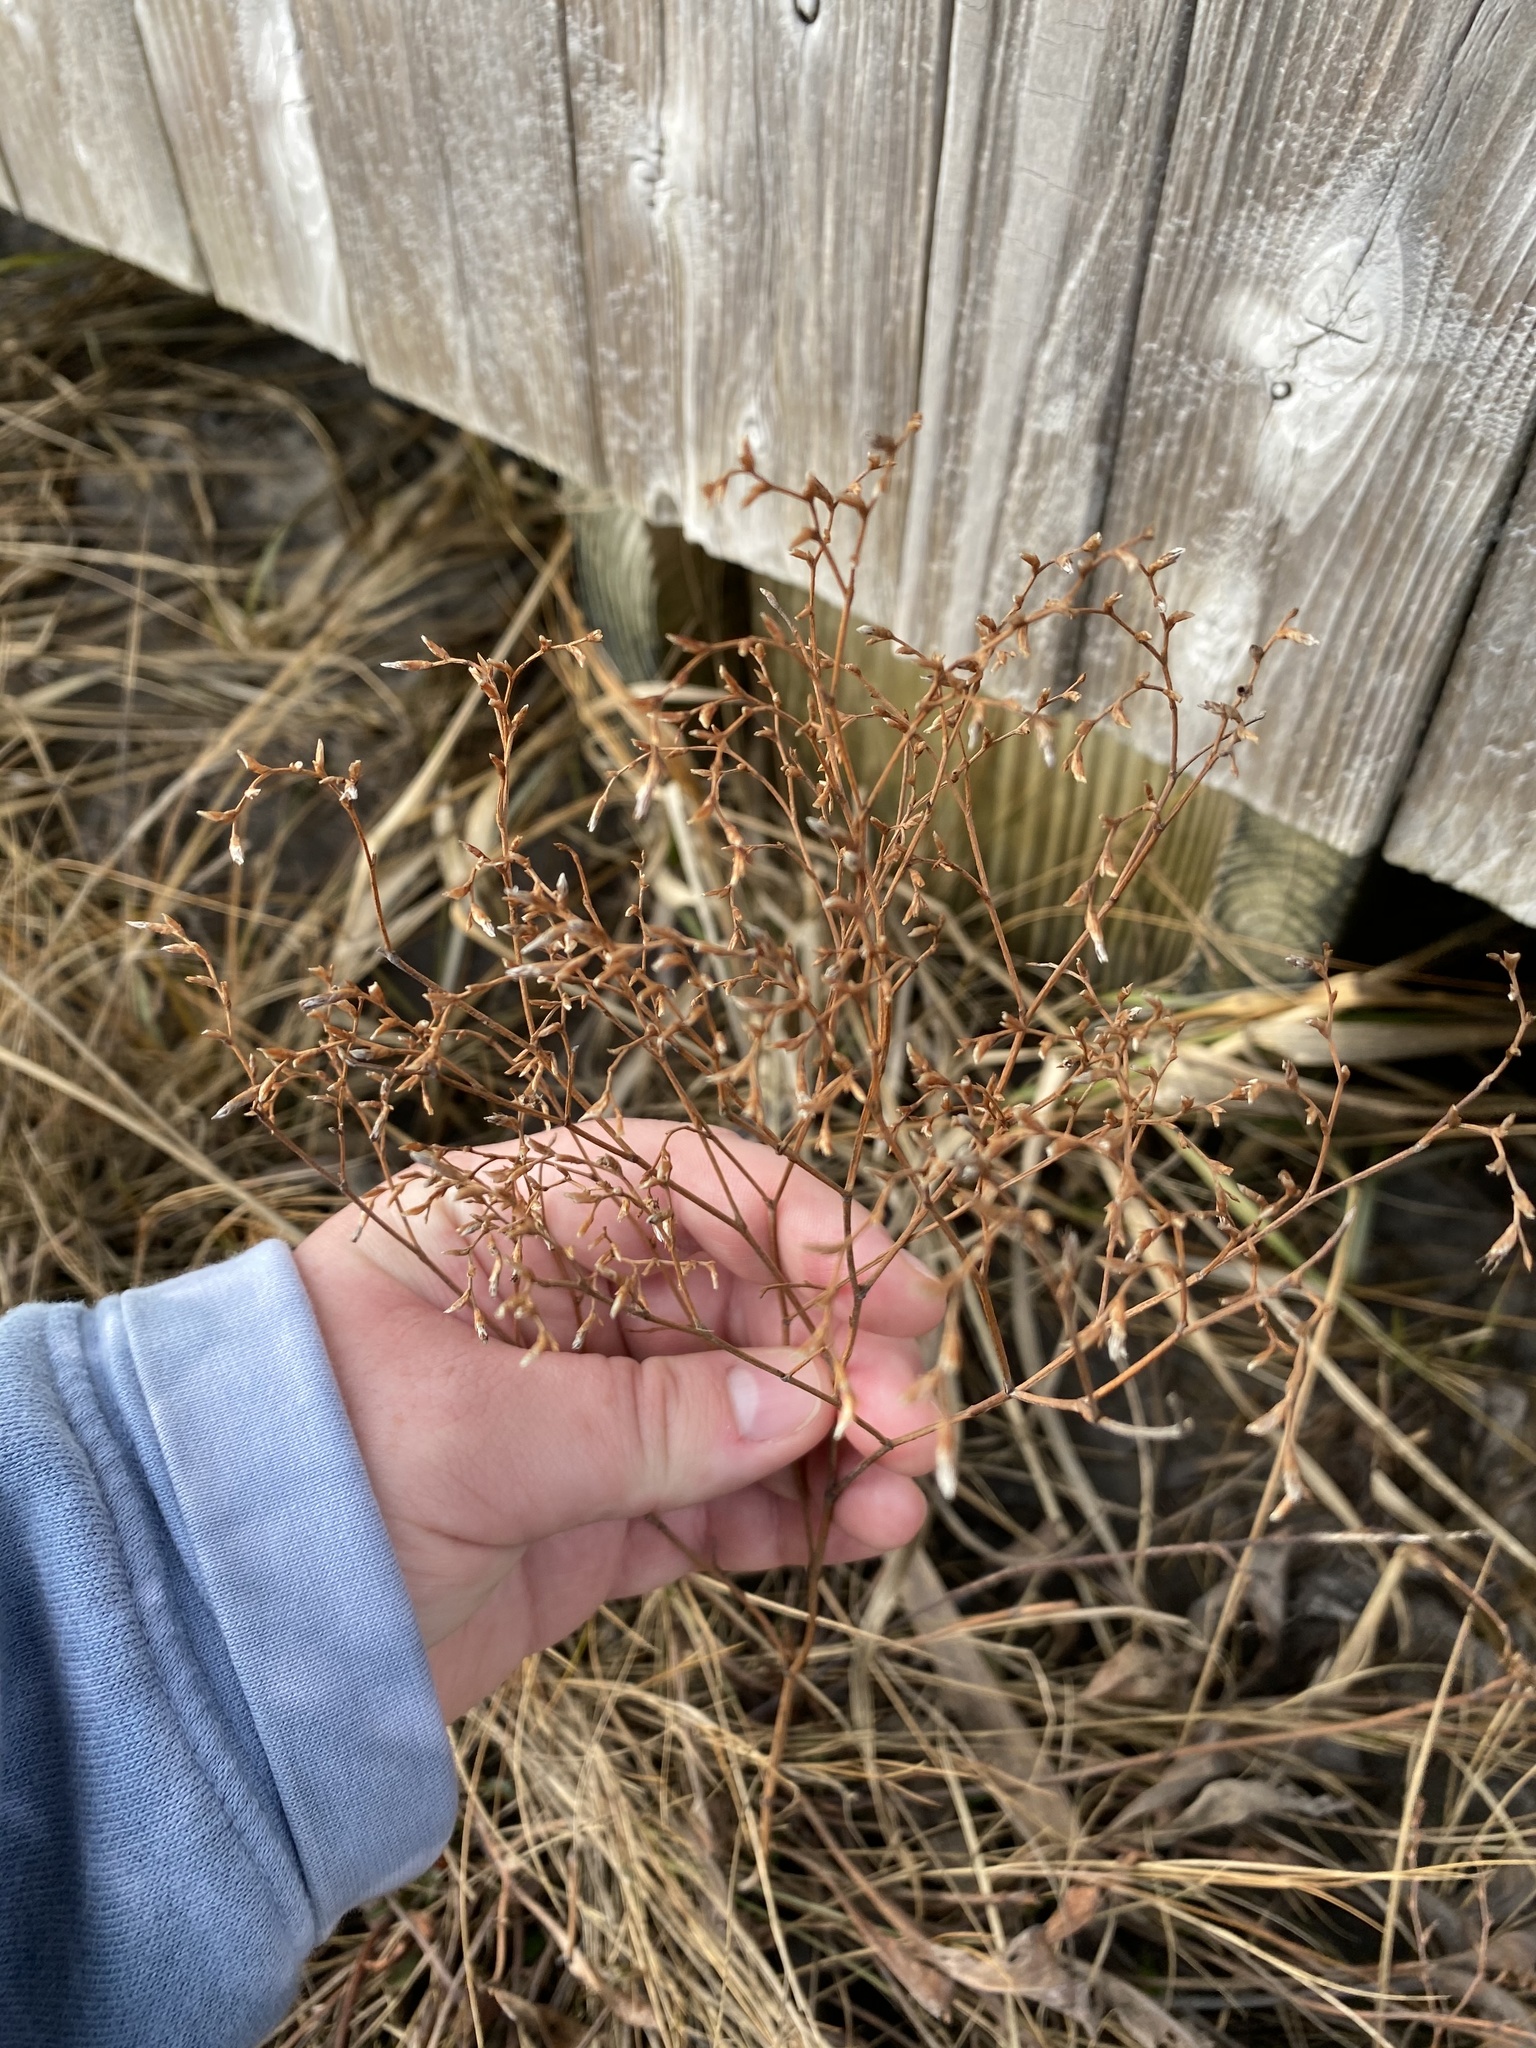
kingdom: Plantae
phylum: Tracheophyta
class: Magnoliopsida
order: Caryophyllales
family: Plumbaginaceae
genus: Limonium
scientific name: Limonium carolinianum
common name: Carolina sea lavender
